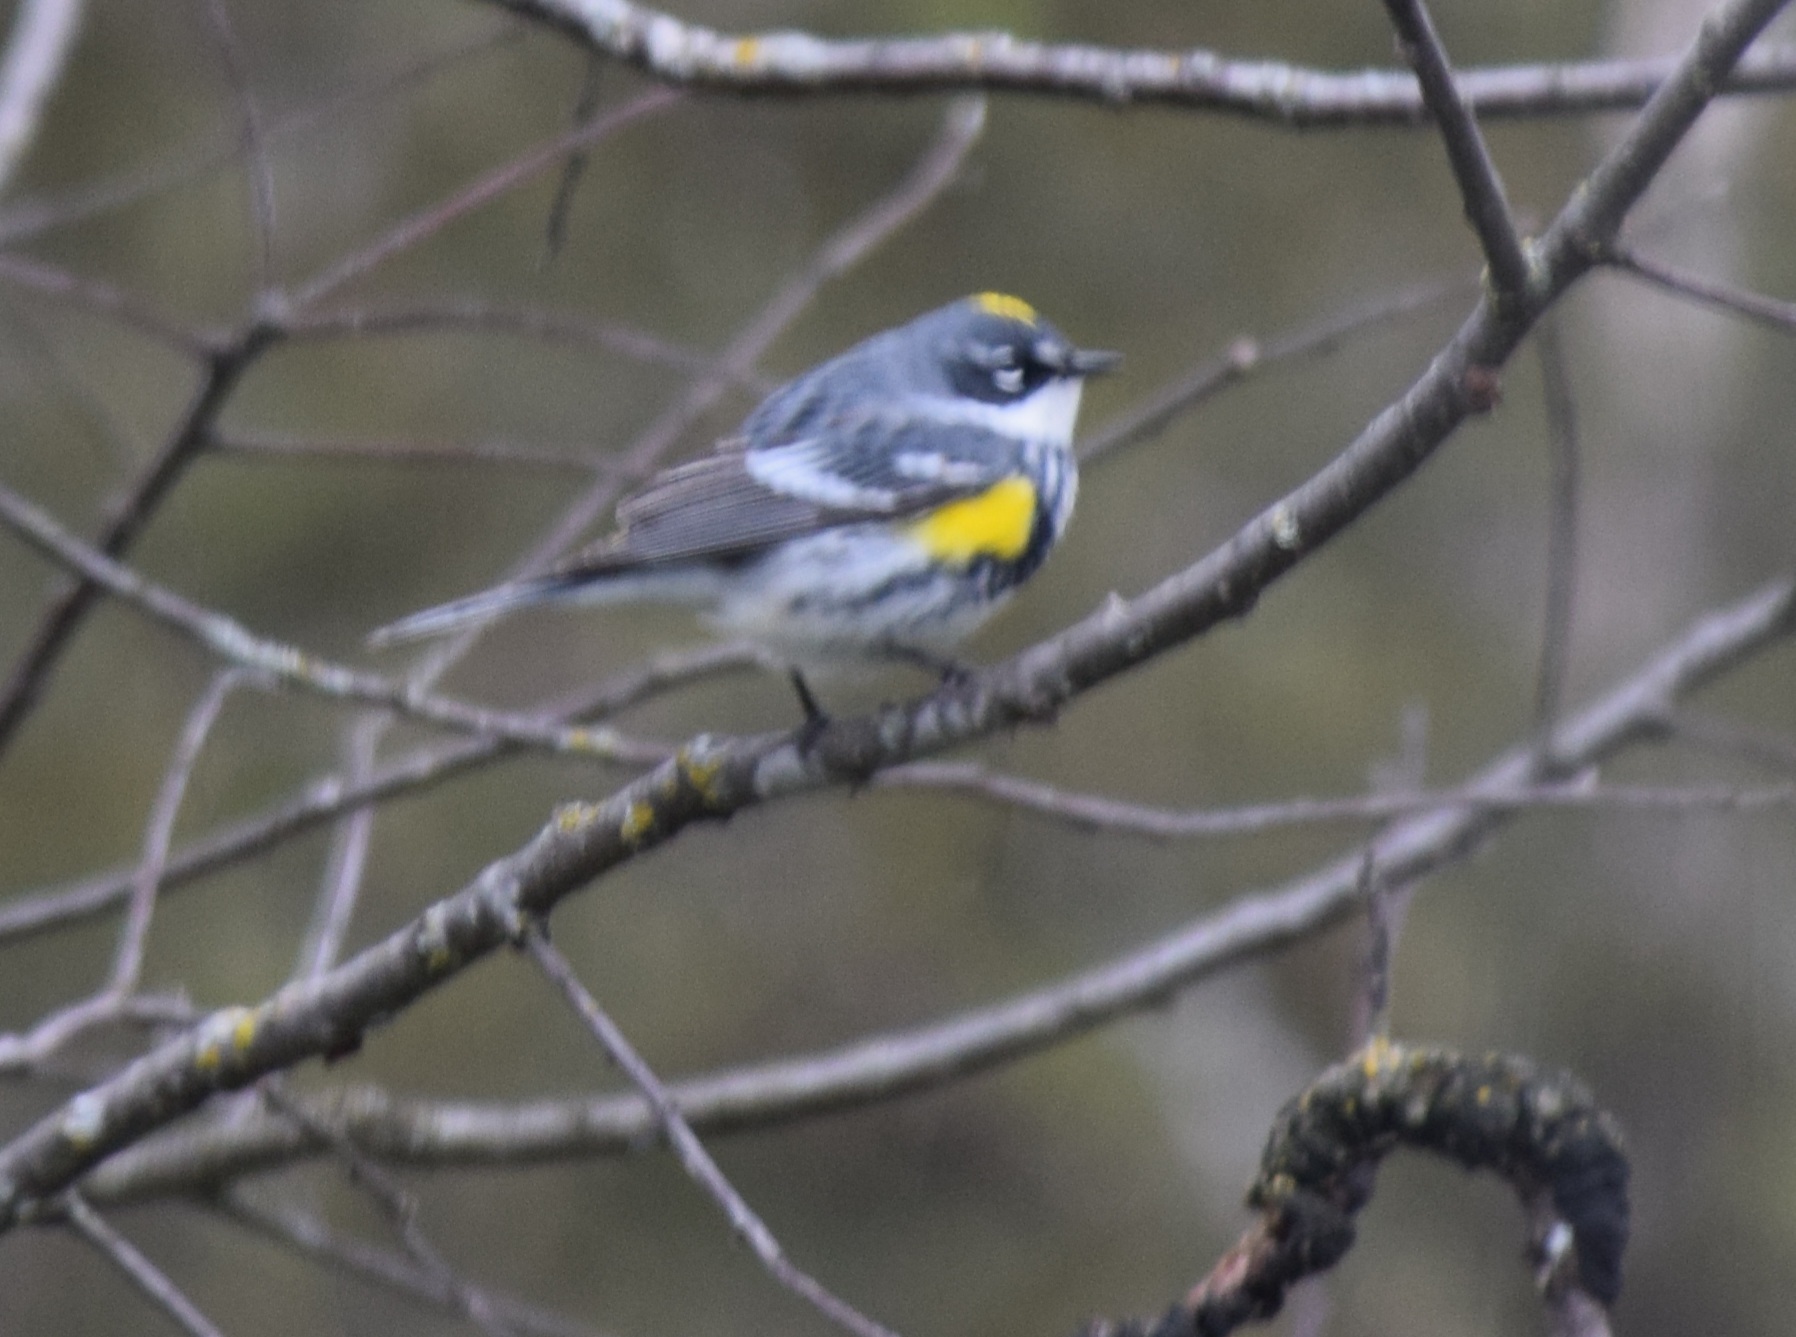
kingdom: Animalia
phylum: Chordata
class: Aves
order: Passeriformes
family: Parulidae
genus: Setophaga
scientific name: Setophaga coronata
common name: Myrtle warbler
